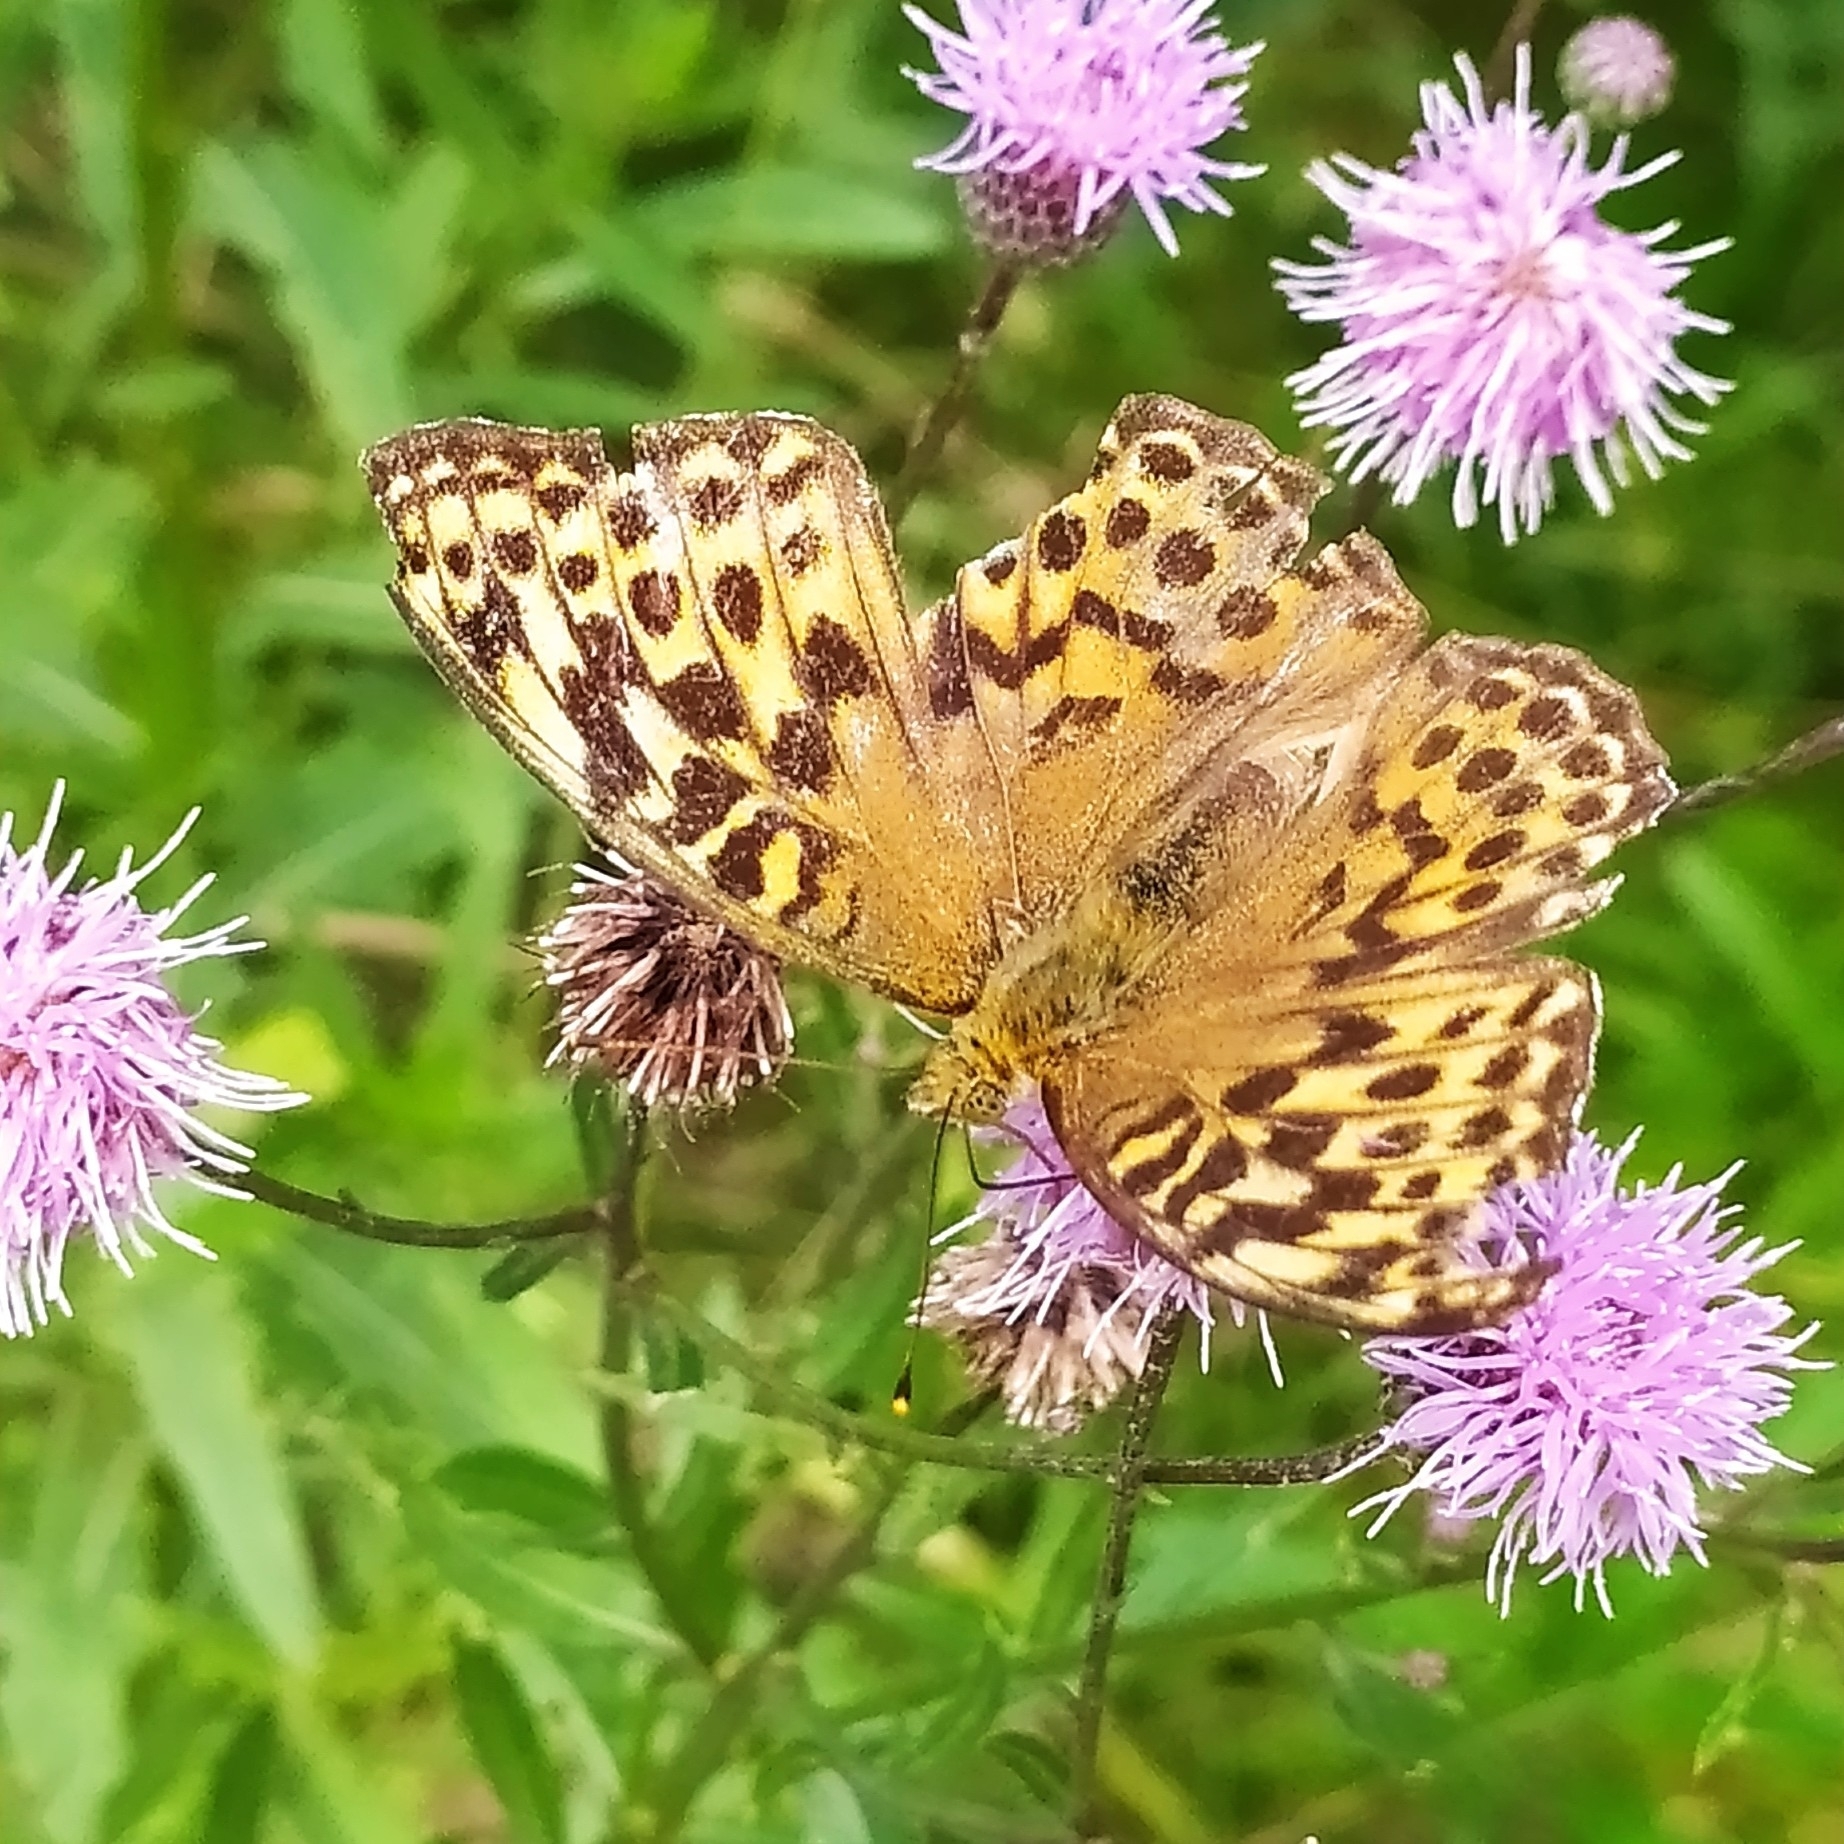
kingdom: Animalia
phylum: Arthropoda
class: Insecta
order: Lepidoptera
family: Nymphalidae
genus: Argynnis
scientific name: Argynnis paphia
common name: Silver-washed fritillary
